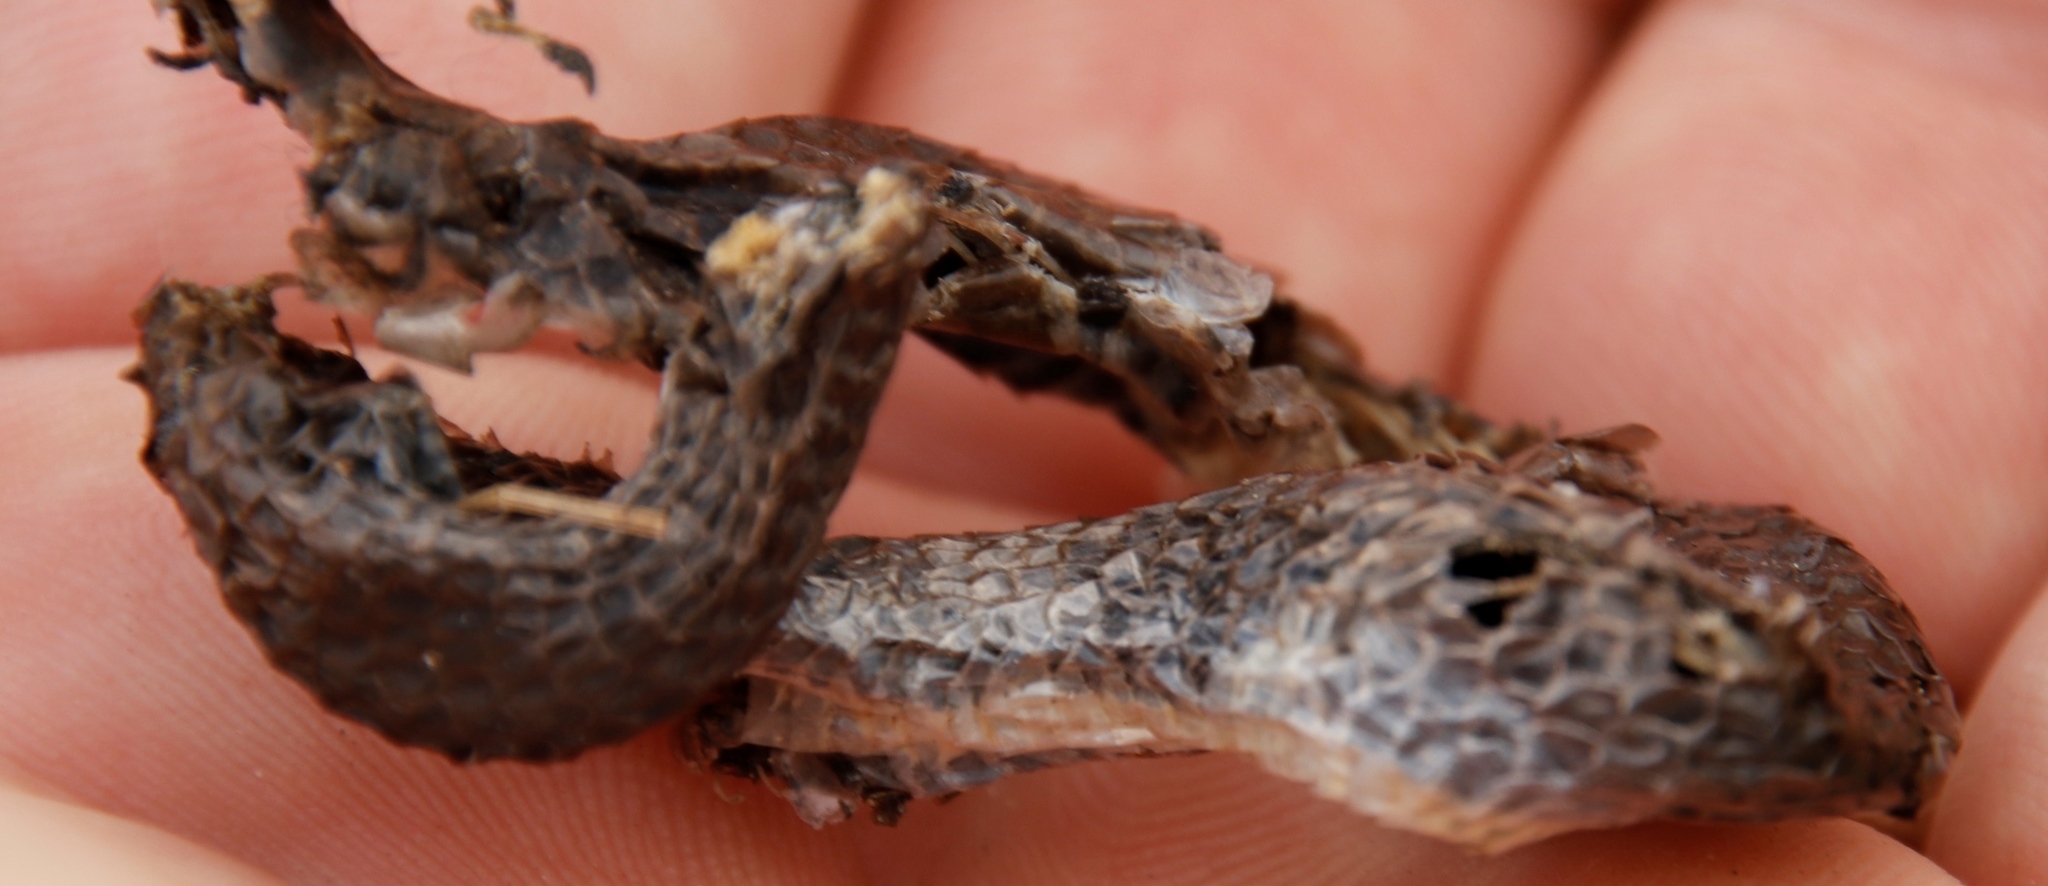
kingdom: Animalia
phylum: Chordata
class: Squamata
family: Pseudoxyrhophiidae
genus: Duberria
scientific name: Duberria lutrix
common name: Common slug eater
